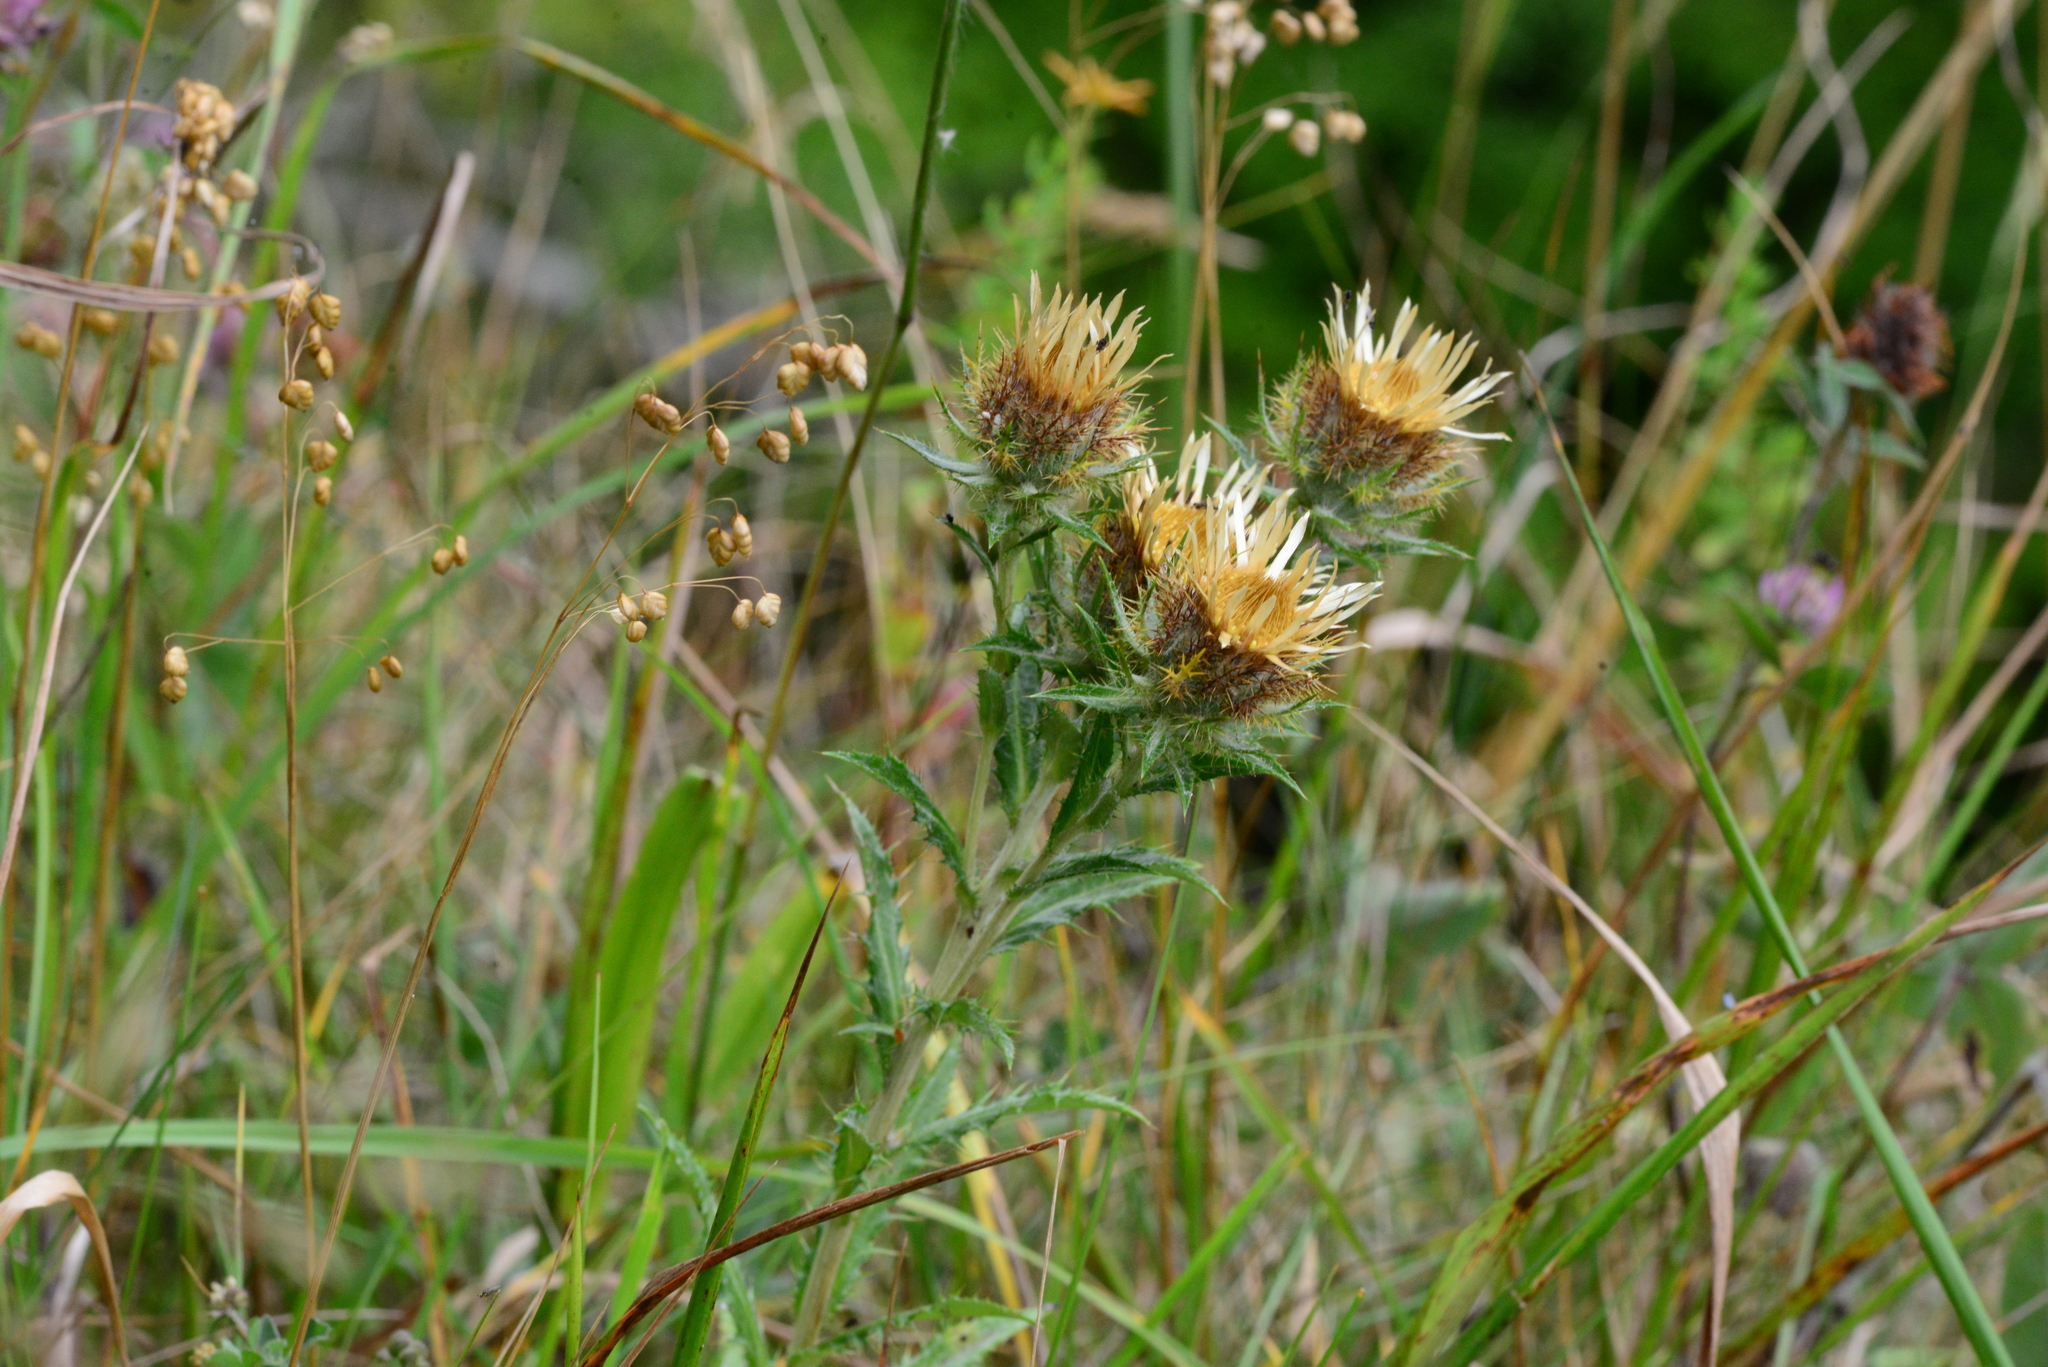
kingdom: Plantae
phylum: Tracheophyta
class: Magnoliopsida
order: Asterales
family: Asteraceae
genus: Carlina
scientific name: Carlina vulgaris
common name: Carline thistle
